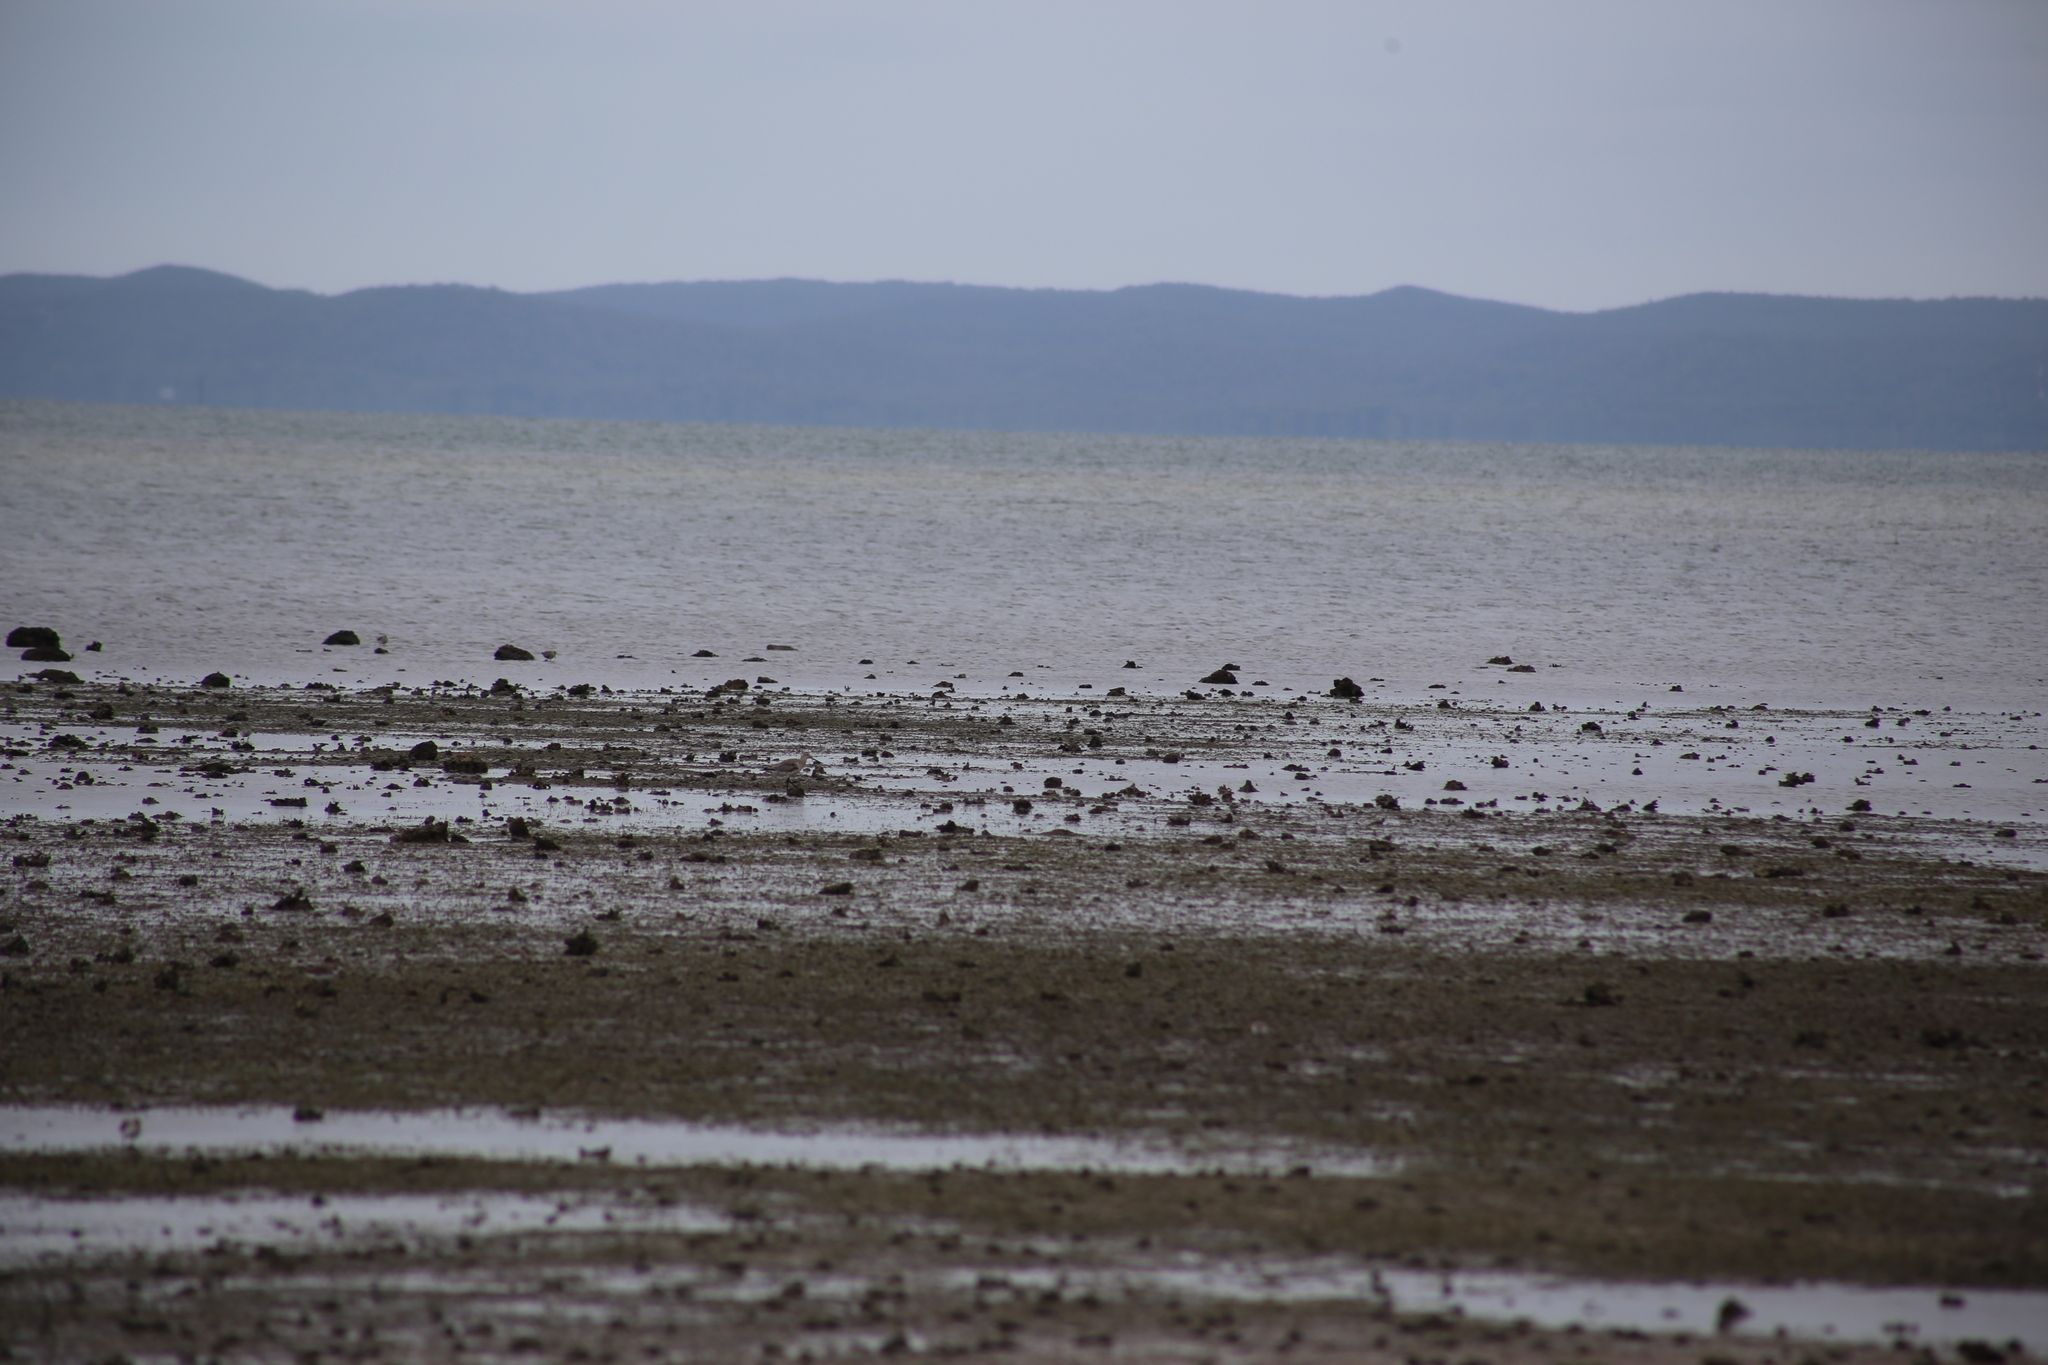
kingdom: Animalia
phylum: Chordata
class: Aves
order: Charadriiformes
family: Scolopacidae
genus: Limosa
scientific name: Limosa lapponica
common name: Bar-tailed godwit
